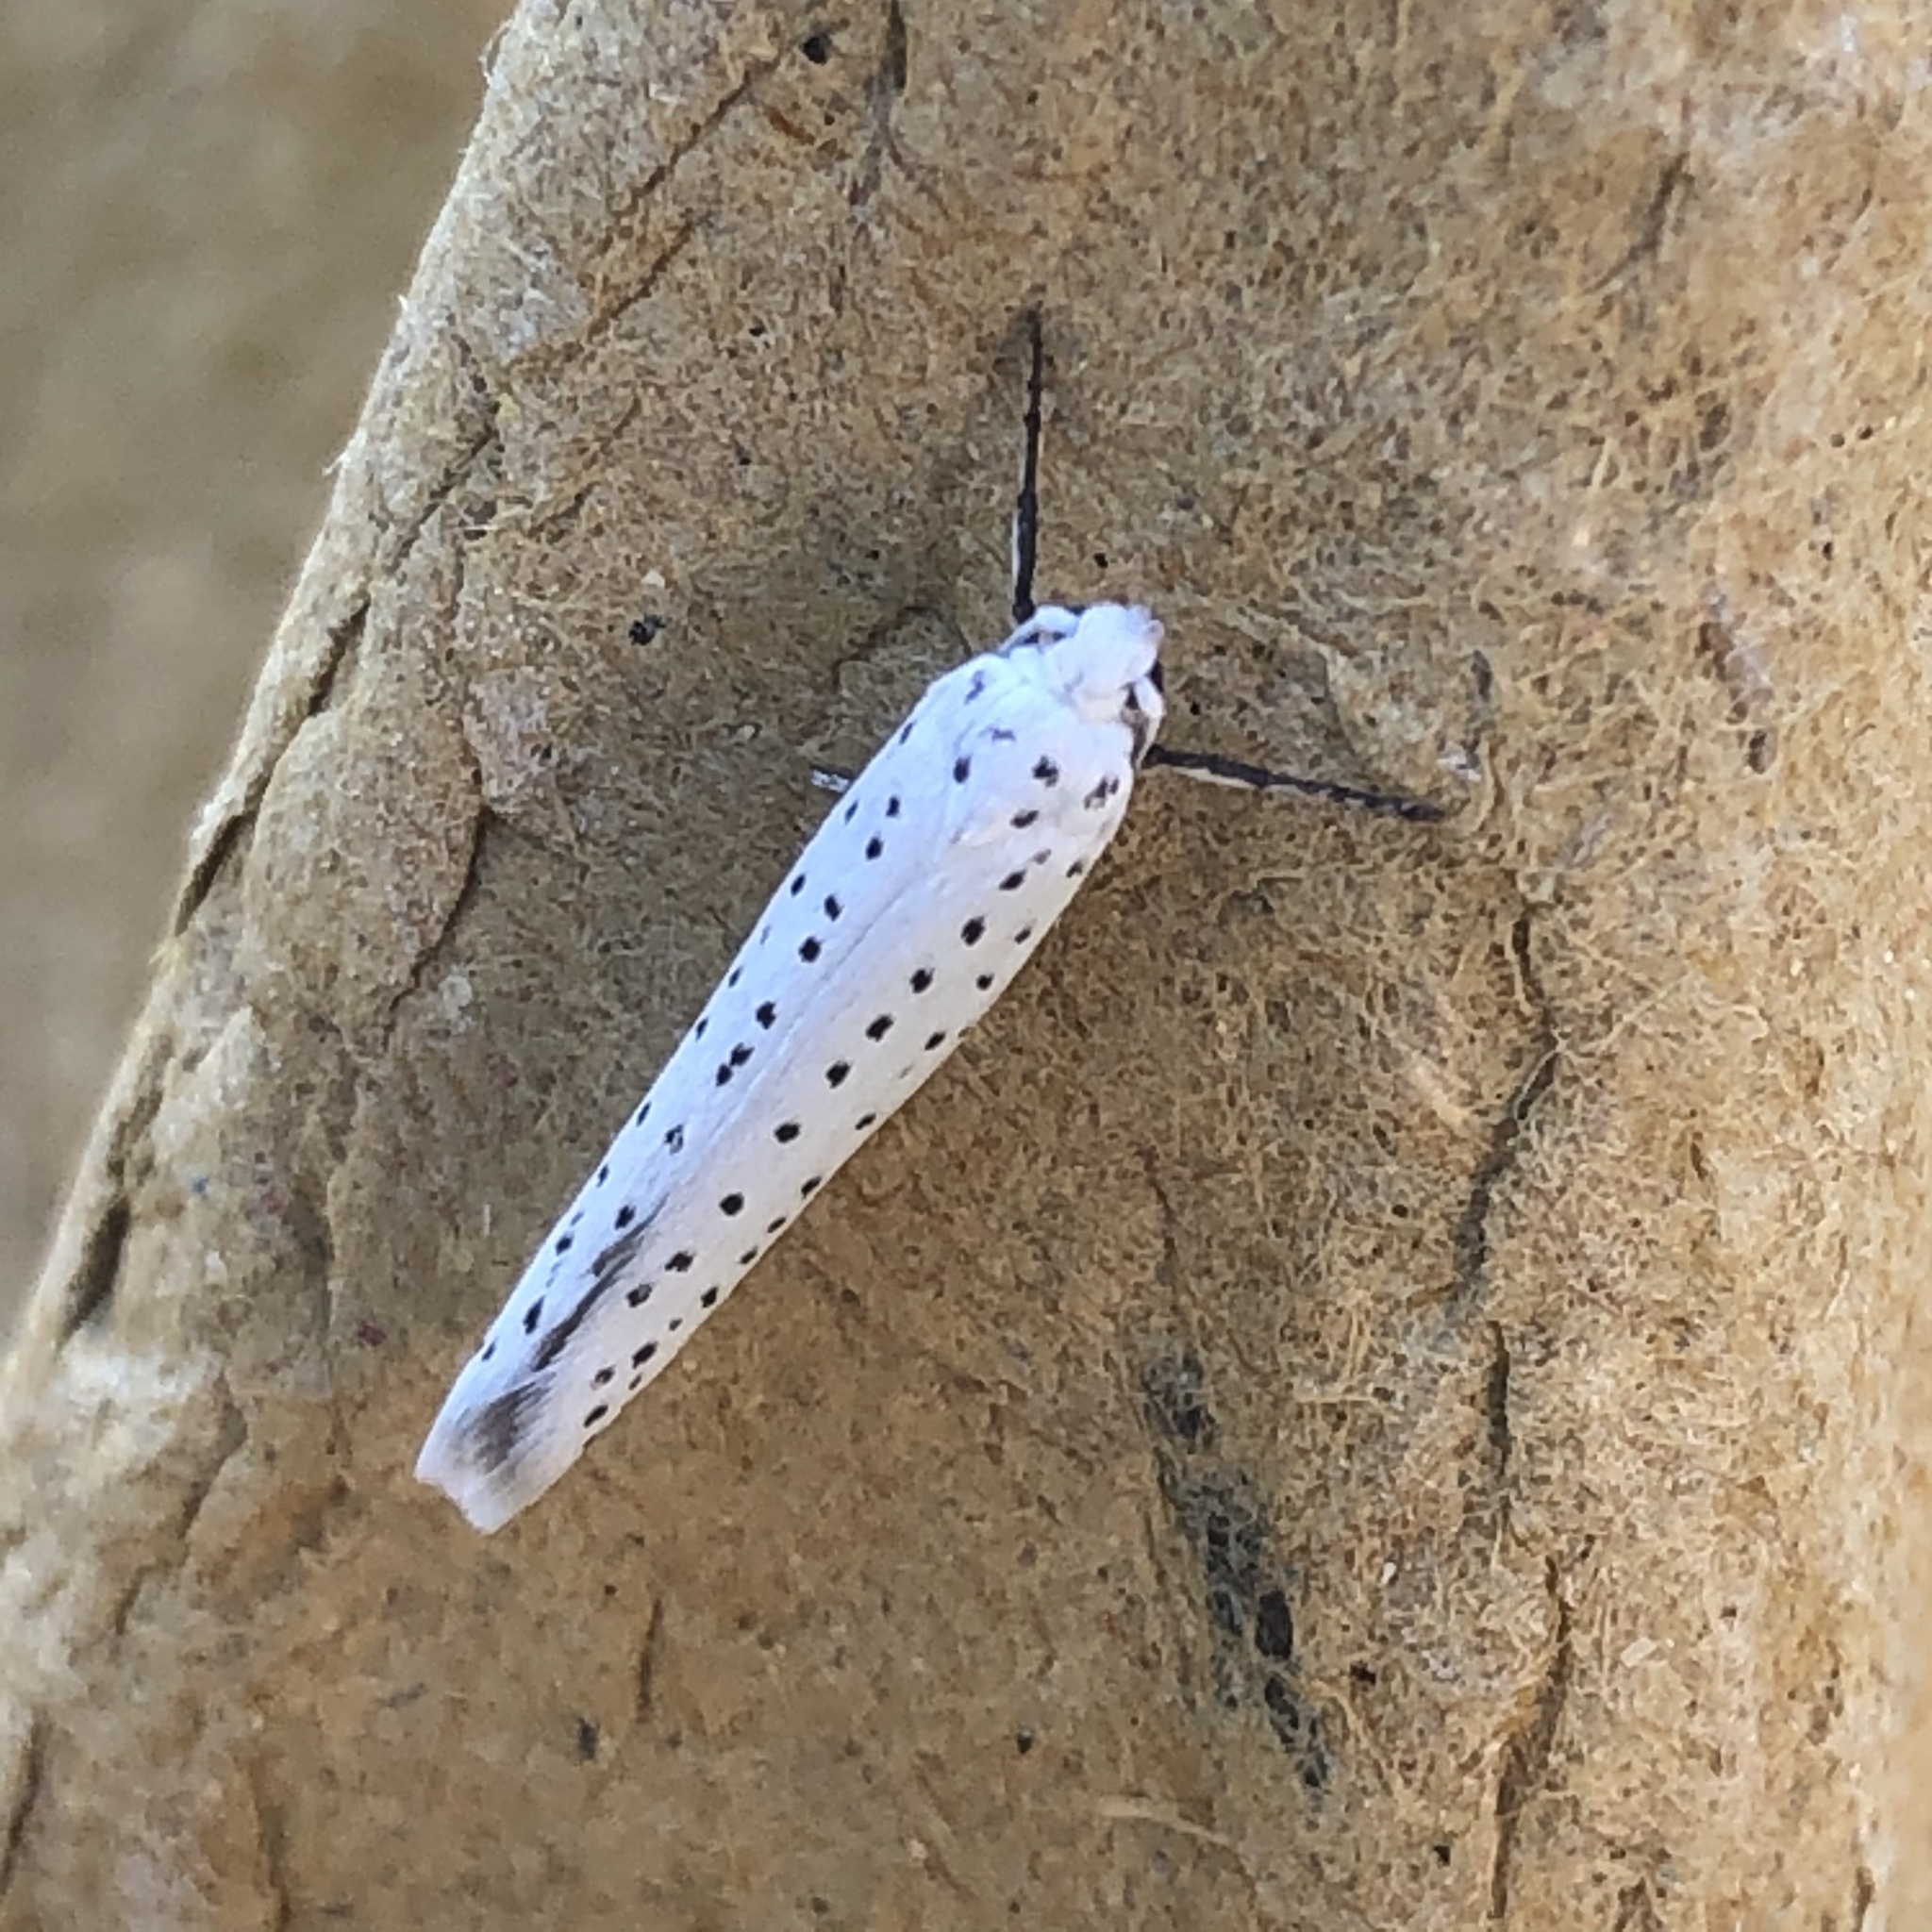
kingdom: Animalia
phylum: Arthropoda
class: Insecta
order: Lepidoptera
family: Yponomeutidae
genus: Yponomeuta
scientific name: Yponomeuta evonymella
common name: Bird-cherry ermine
